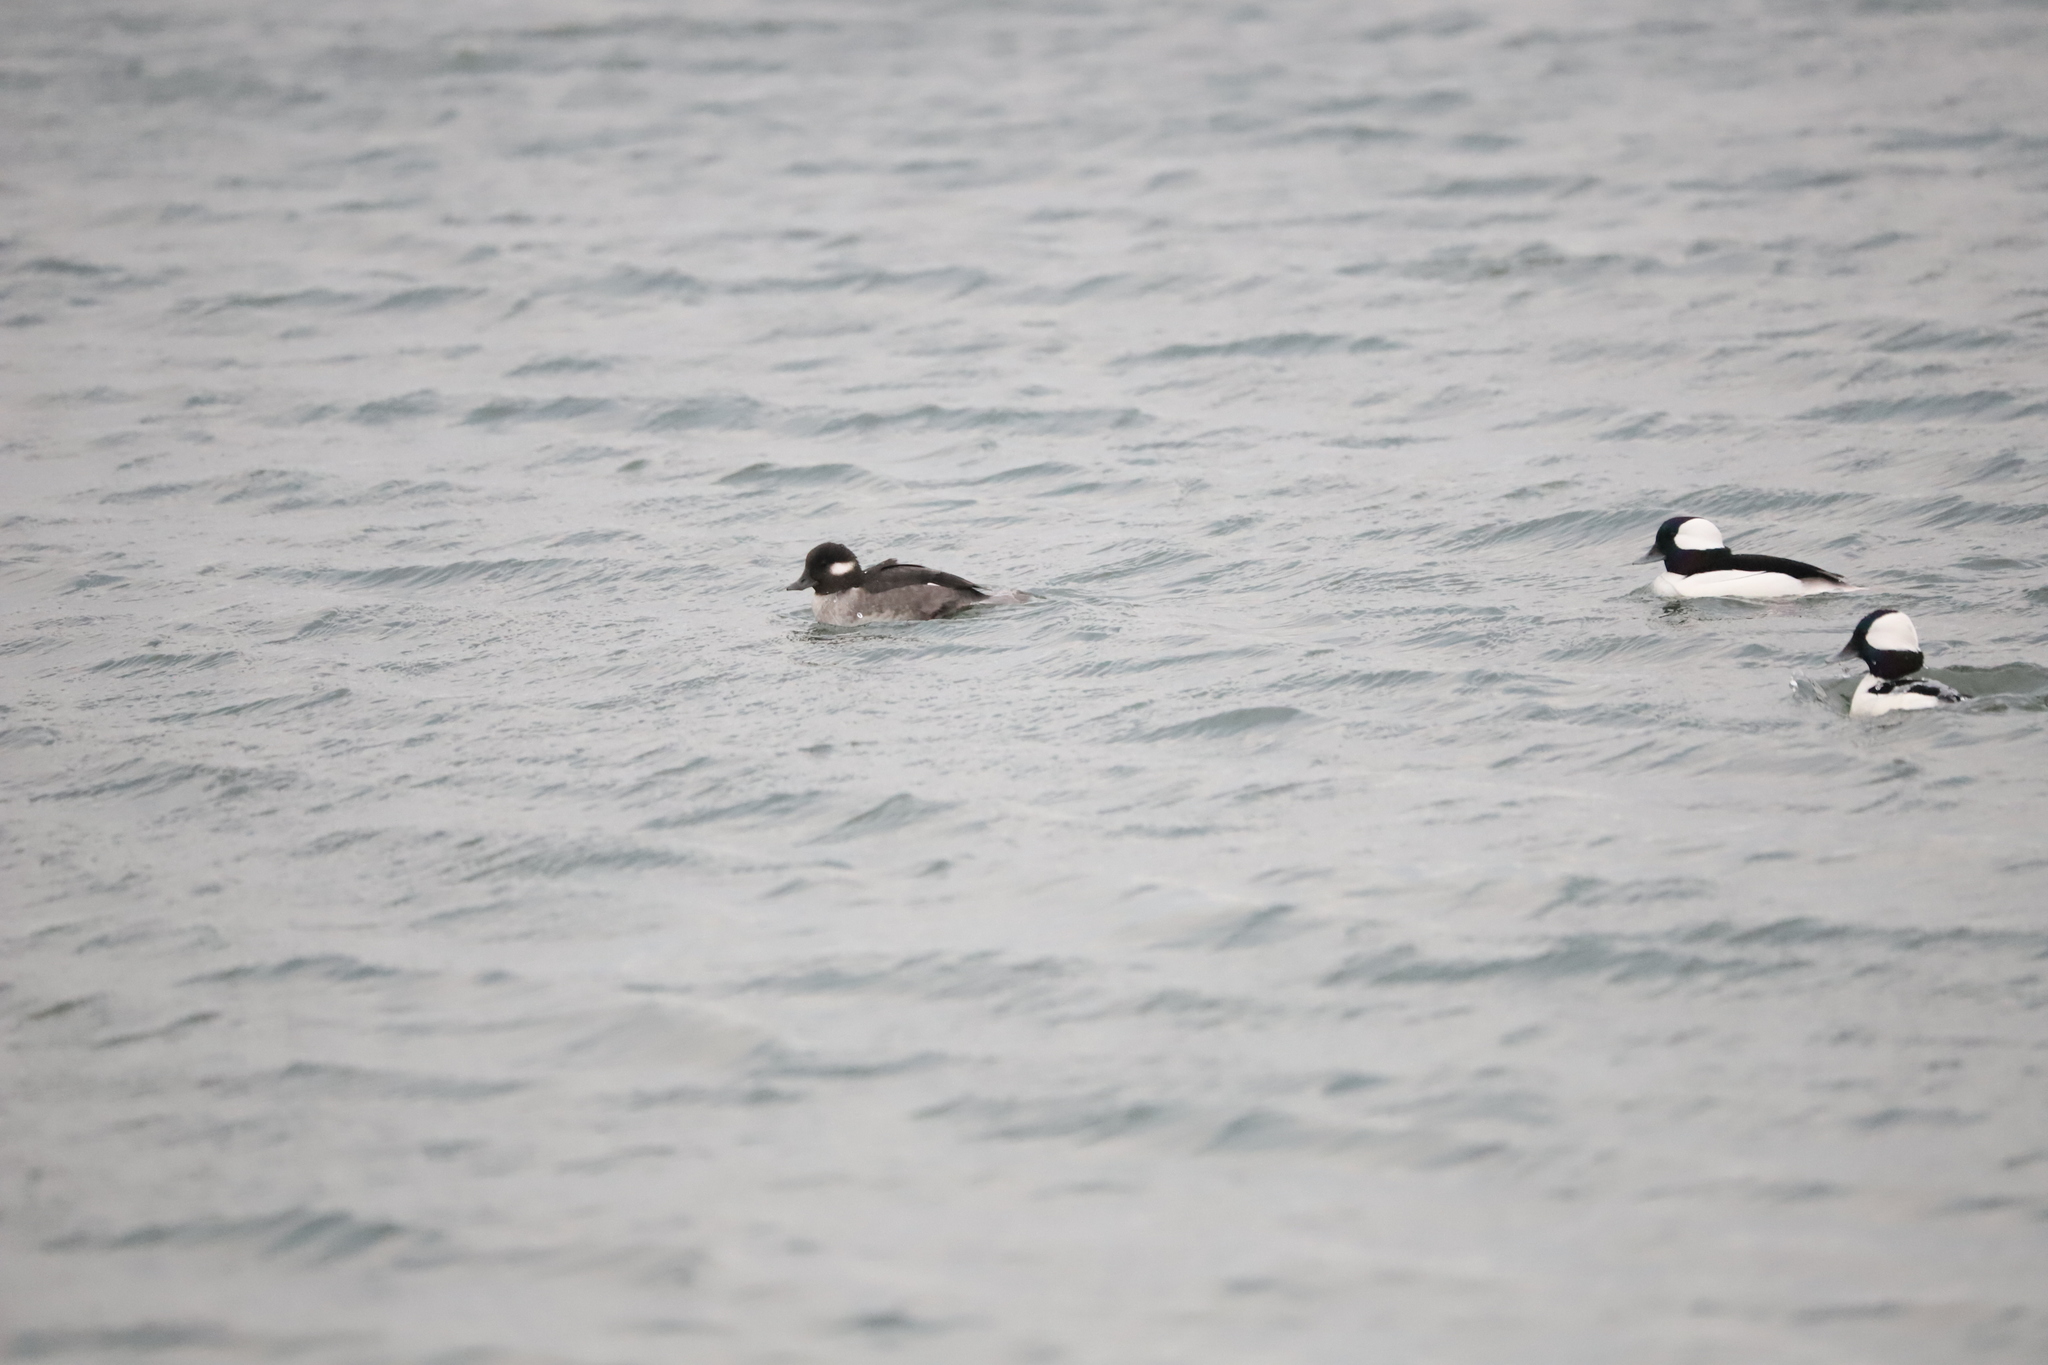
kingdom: Animalia
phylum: Chordata
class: Aves
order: Anseriformes
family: Anatidae
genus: Bucephala
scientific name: Bucephala albeola
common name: Bufflehead
